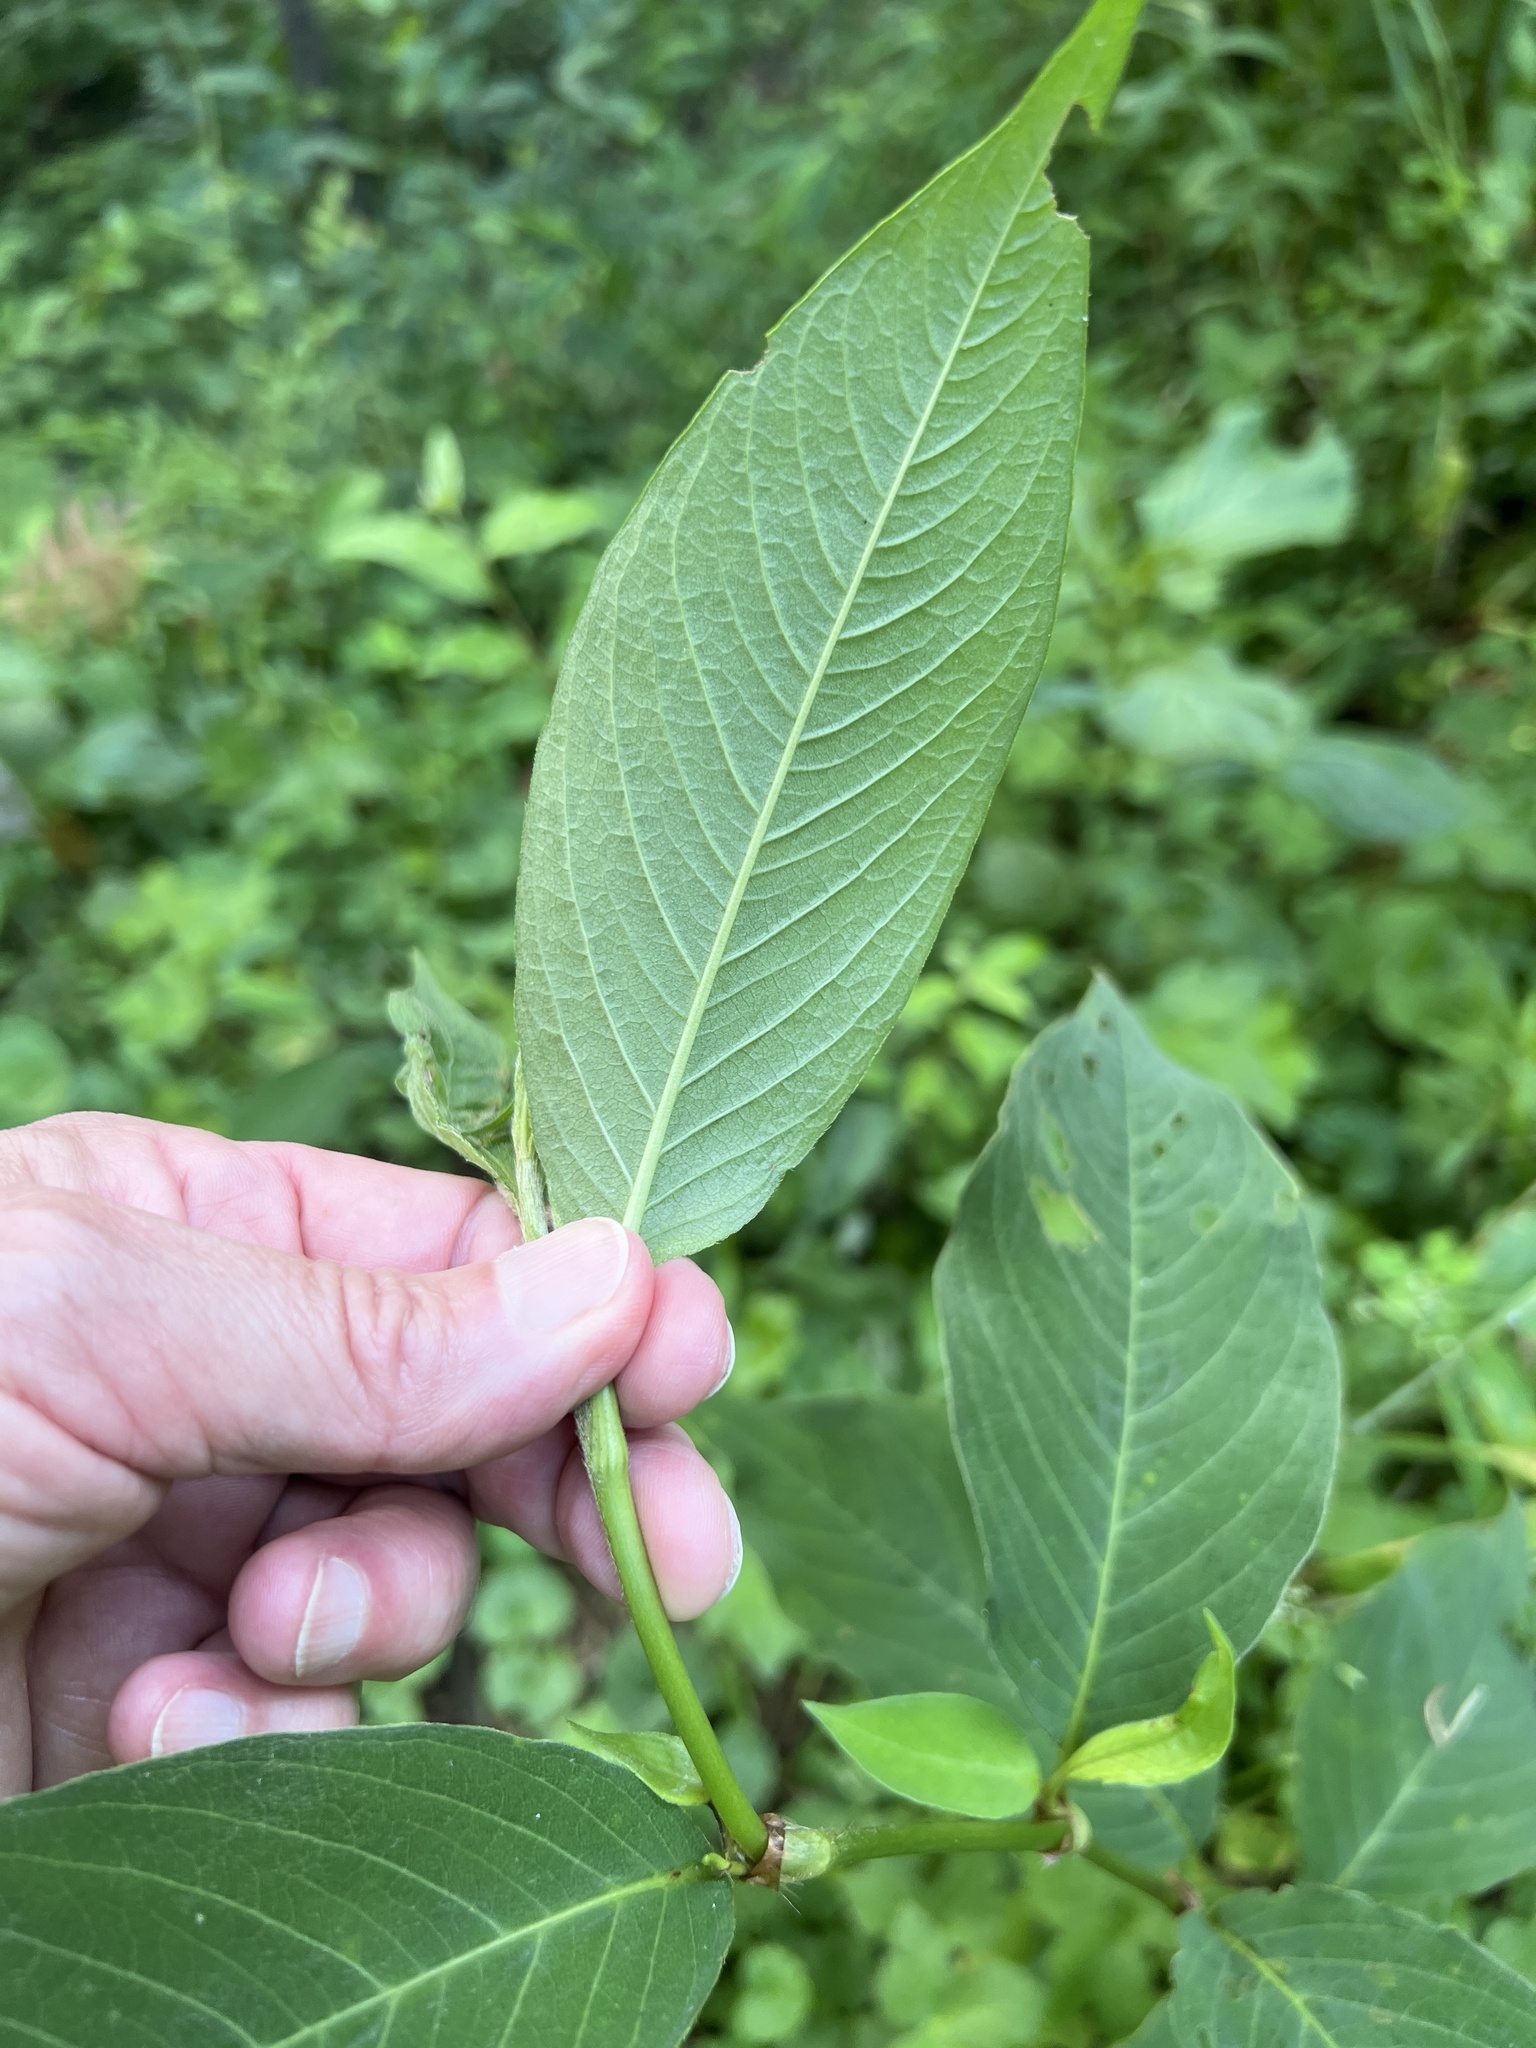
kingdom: Plantae
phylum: Tracheophyta
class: Magnoliopsida
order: Caryophyllales
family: Polygonaceae
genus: Persicaria
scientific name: Persicaria virginiana
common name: Jumpseed
